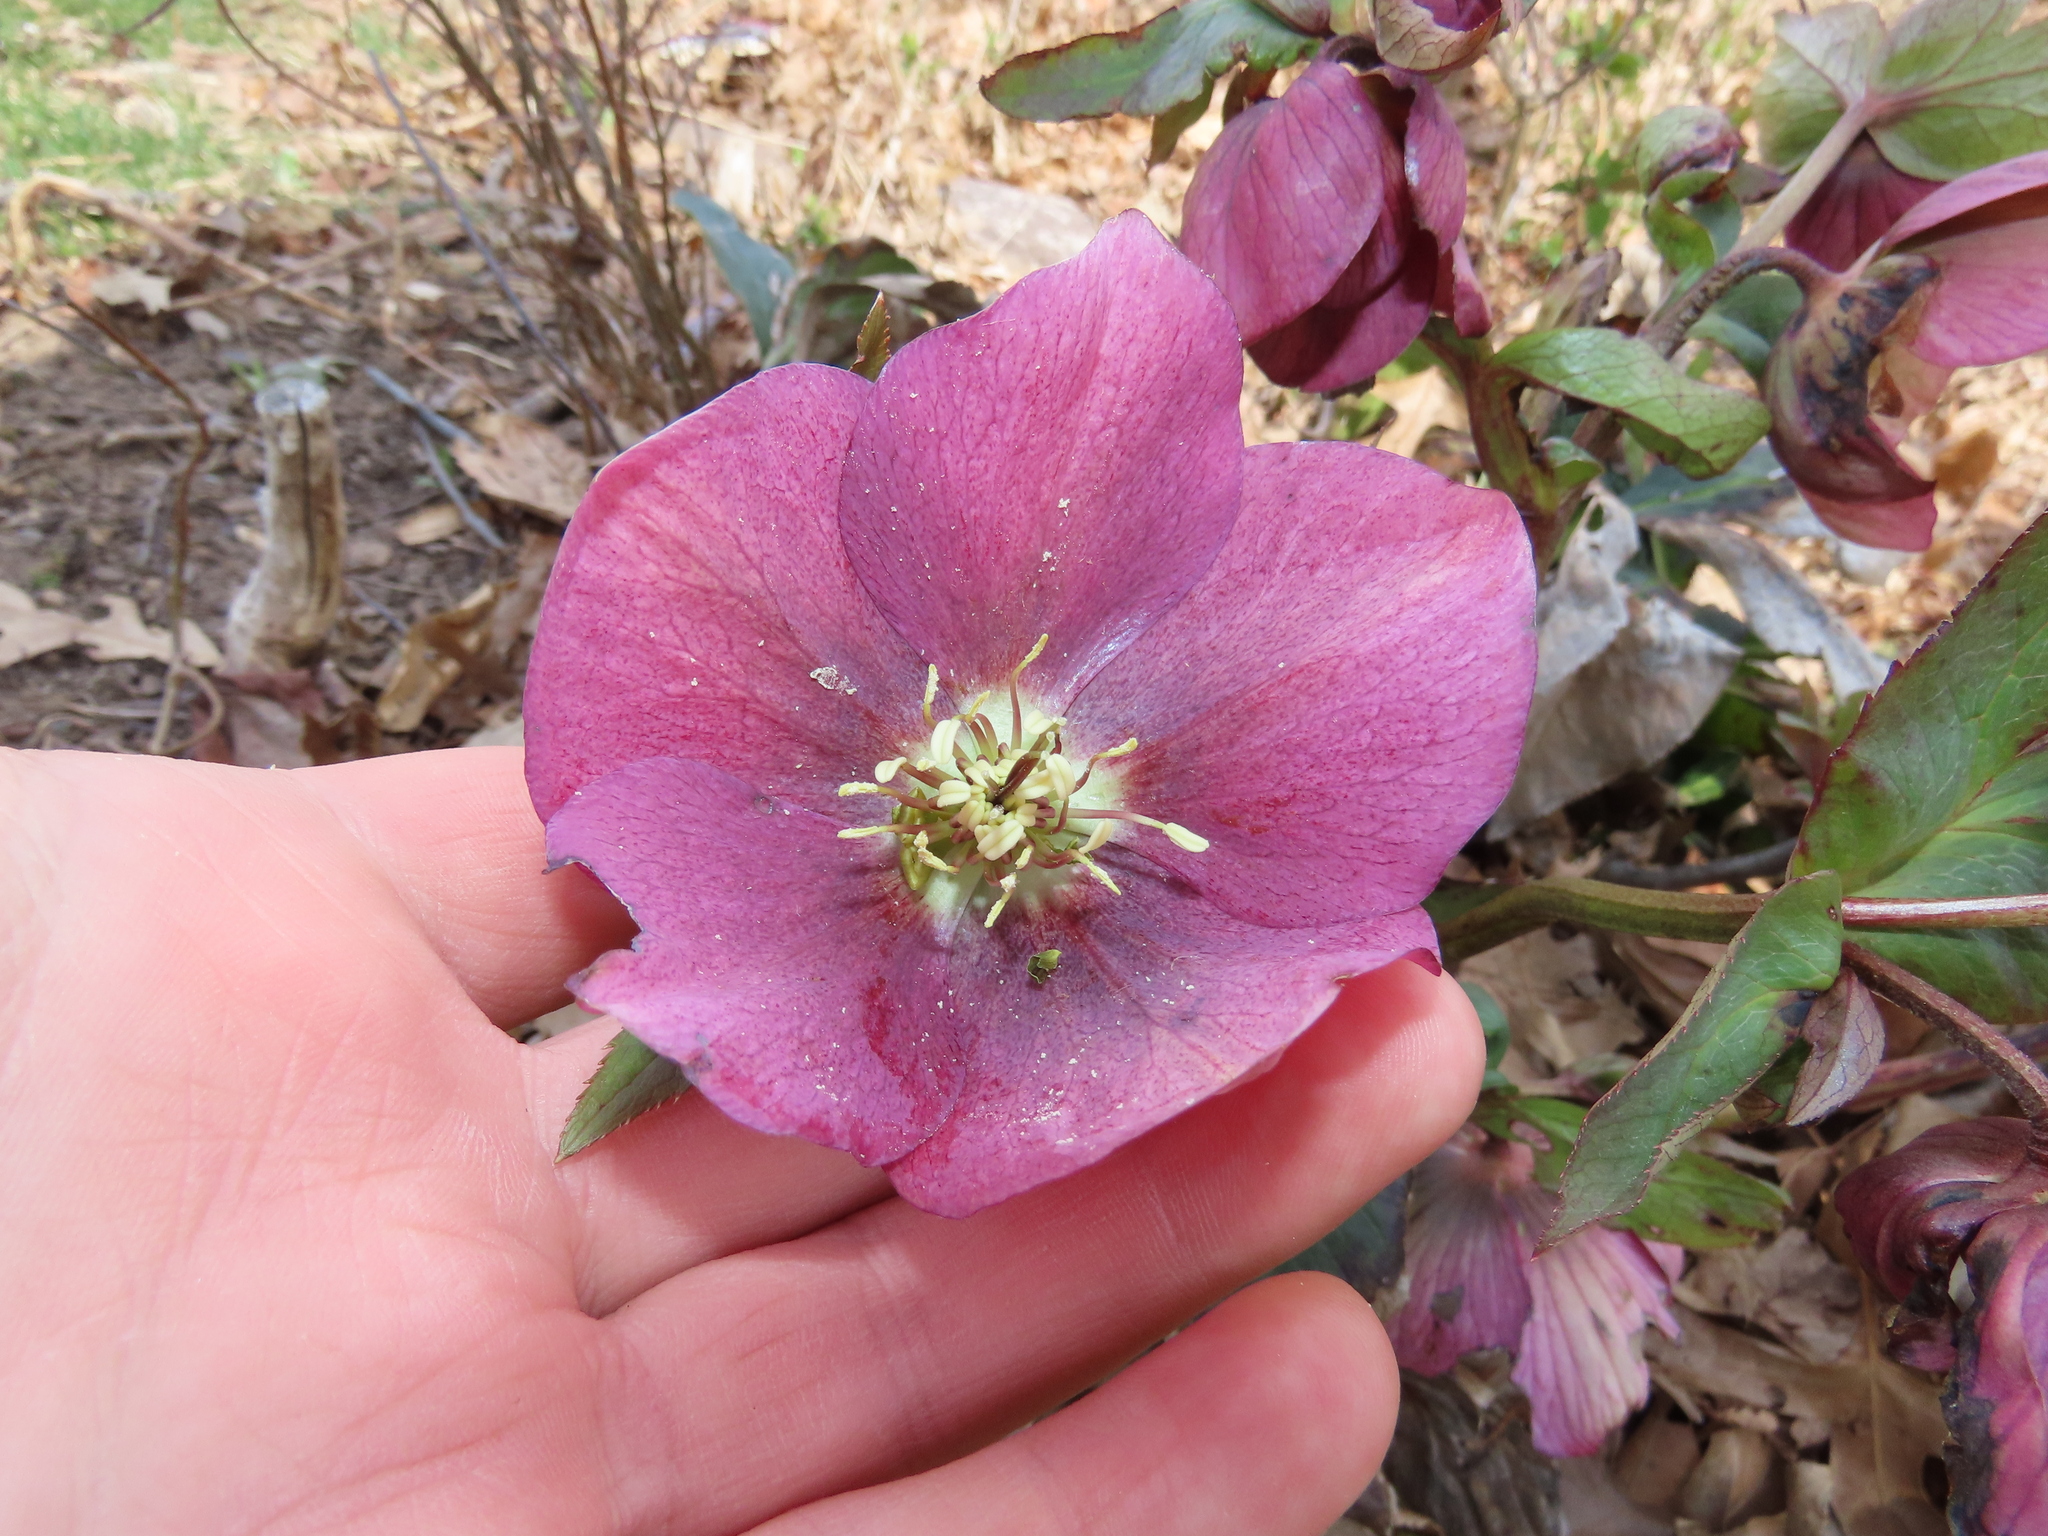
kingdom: Plantae
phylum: Tracheophyta
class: Magnoliopsida
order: Ranunculales
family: Ranunculaceae
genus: Helleborus
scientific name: Helleborus orientalis
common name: Lenten-rose
